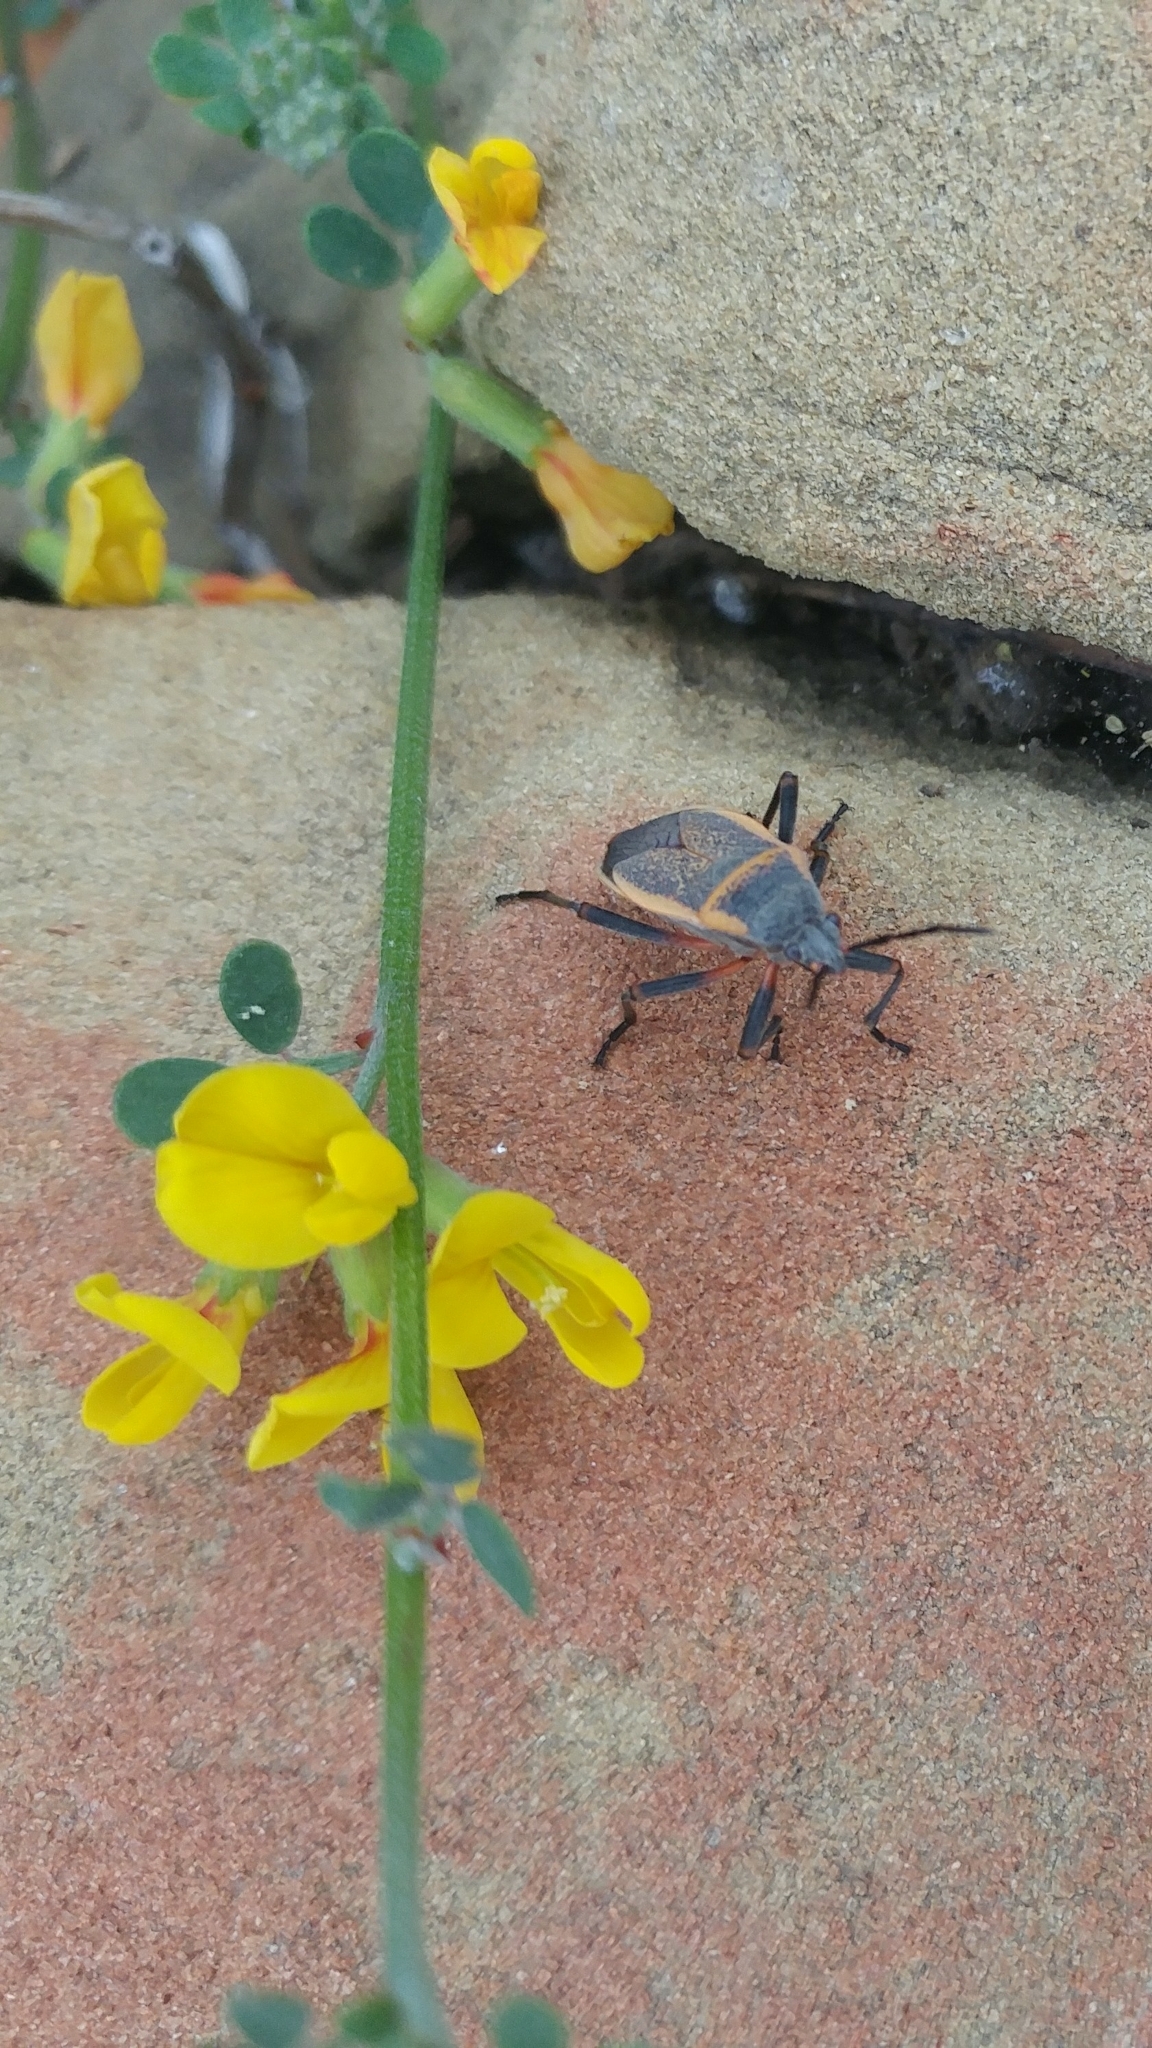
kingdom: Animalia
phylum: Arthropoda
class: Insecta
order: Hemiptera
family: Largidae
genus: Largus
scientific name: Largus californicus
